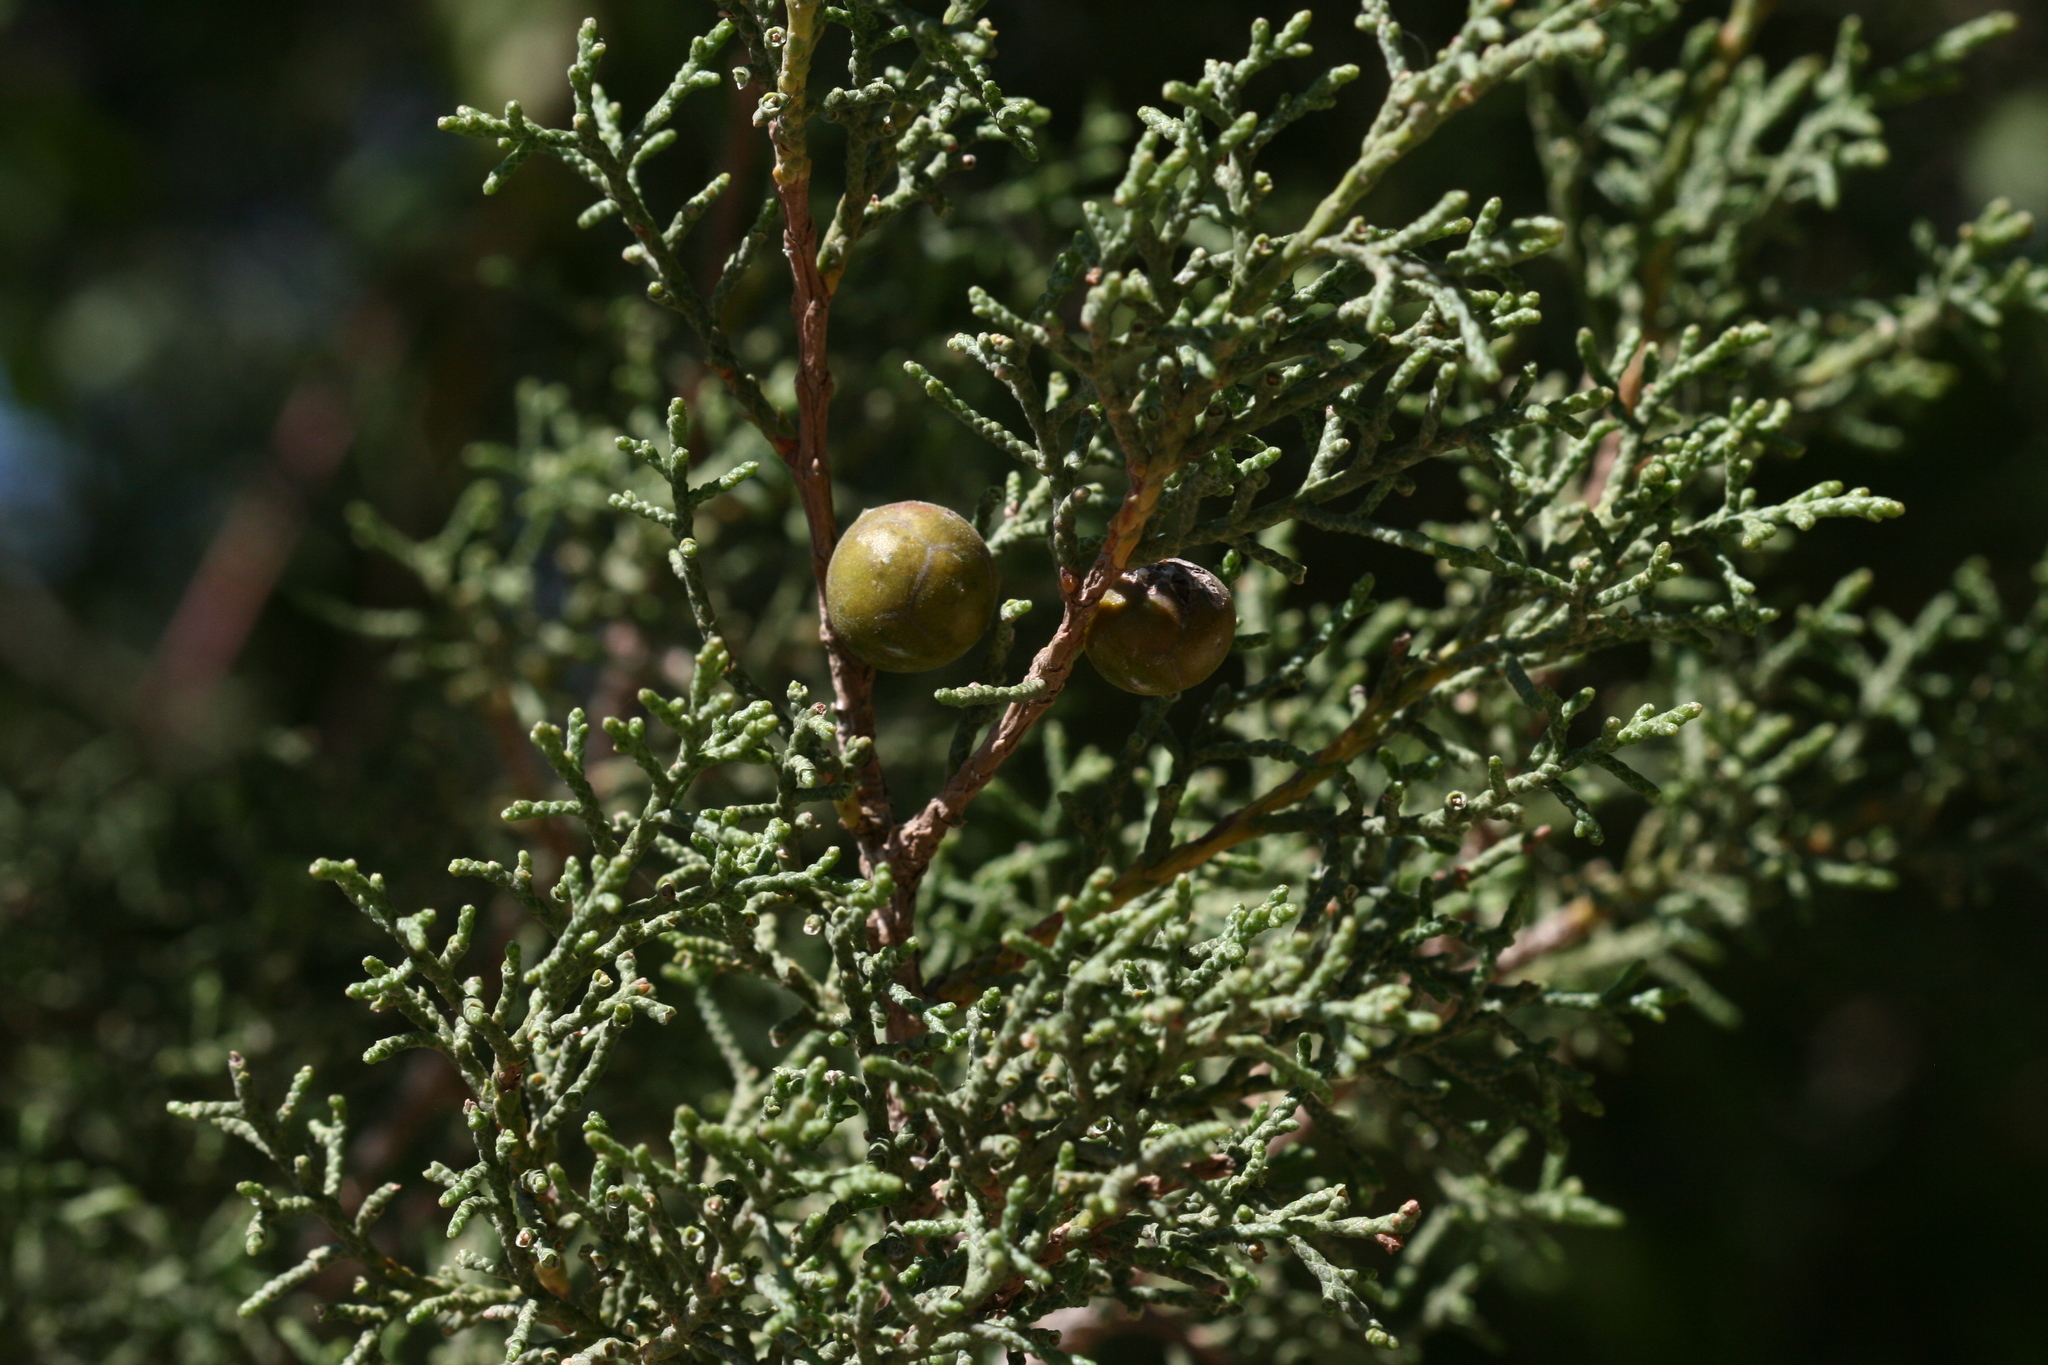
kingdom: Plantae
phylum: Tracheophyta
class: Pinopsida
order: Pinales
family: Cupressaceae
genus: Juniperus
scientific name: Juniperus phoenicea
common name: Phoenician juniper
